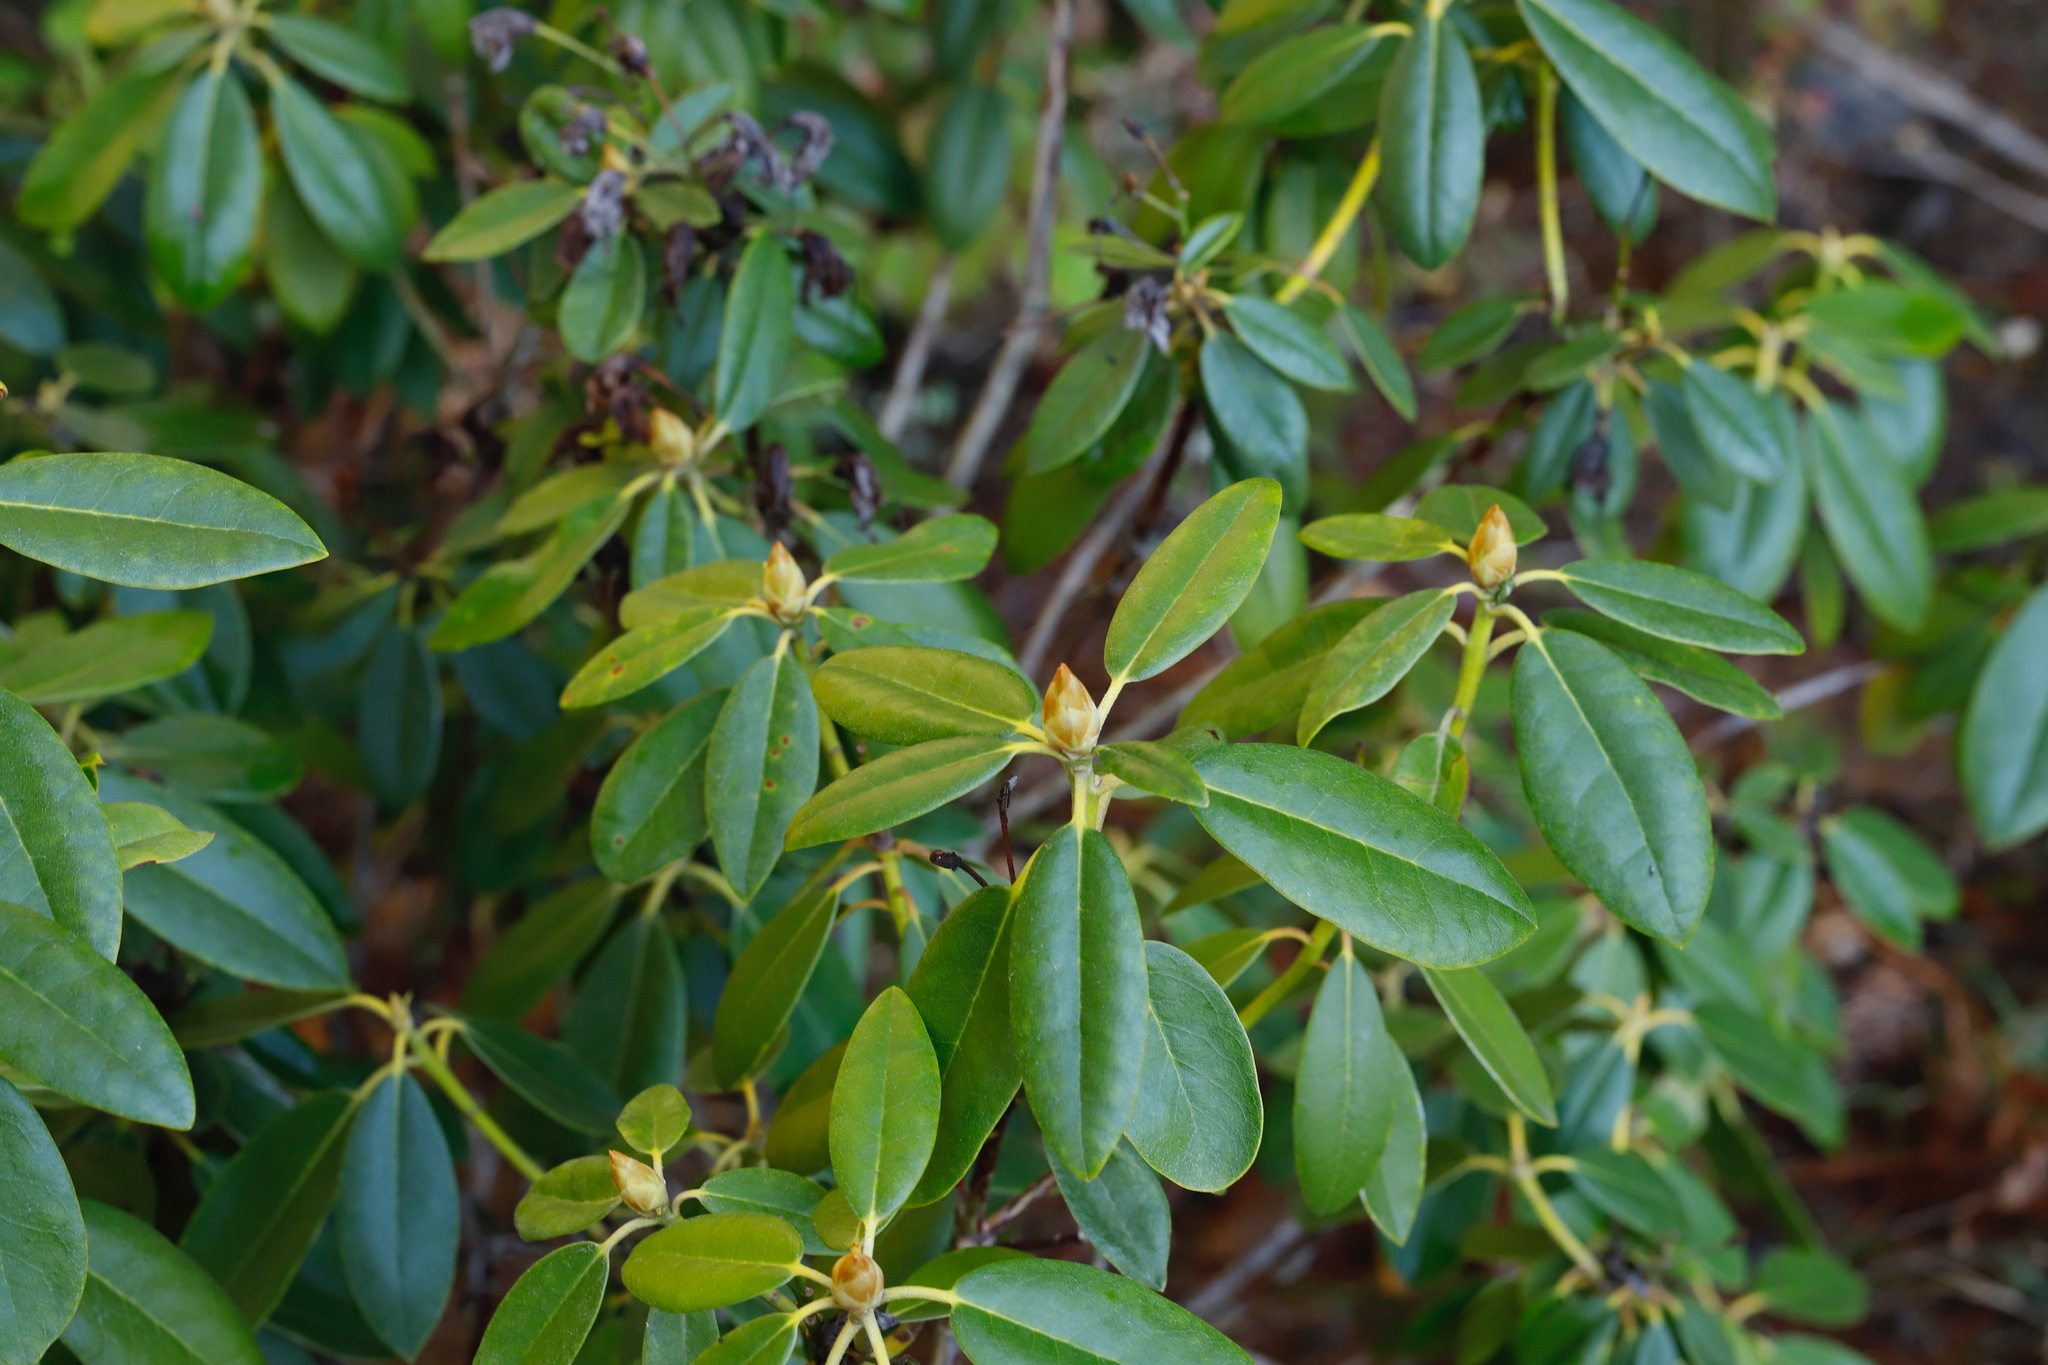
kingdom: Plantae
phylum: Tracheophyta
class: Magnoliopsida
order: Ericales
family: Ericaceae
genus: Rhododendron
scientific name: Rhododendron macrophyllum
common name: California rose bay
